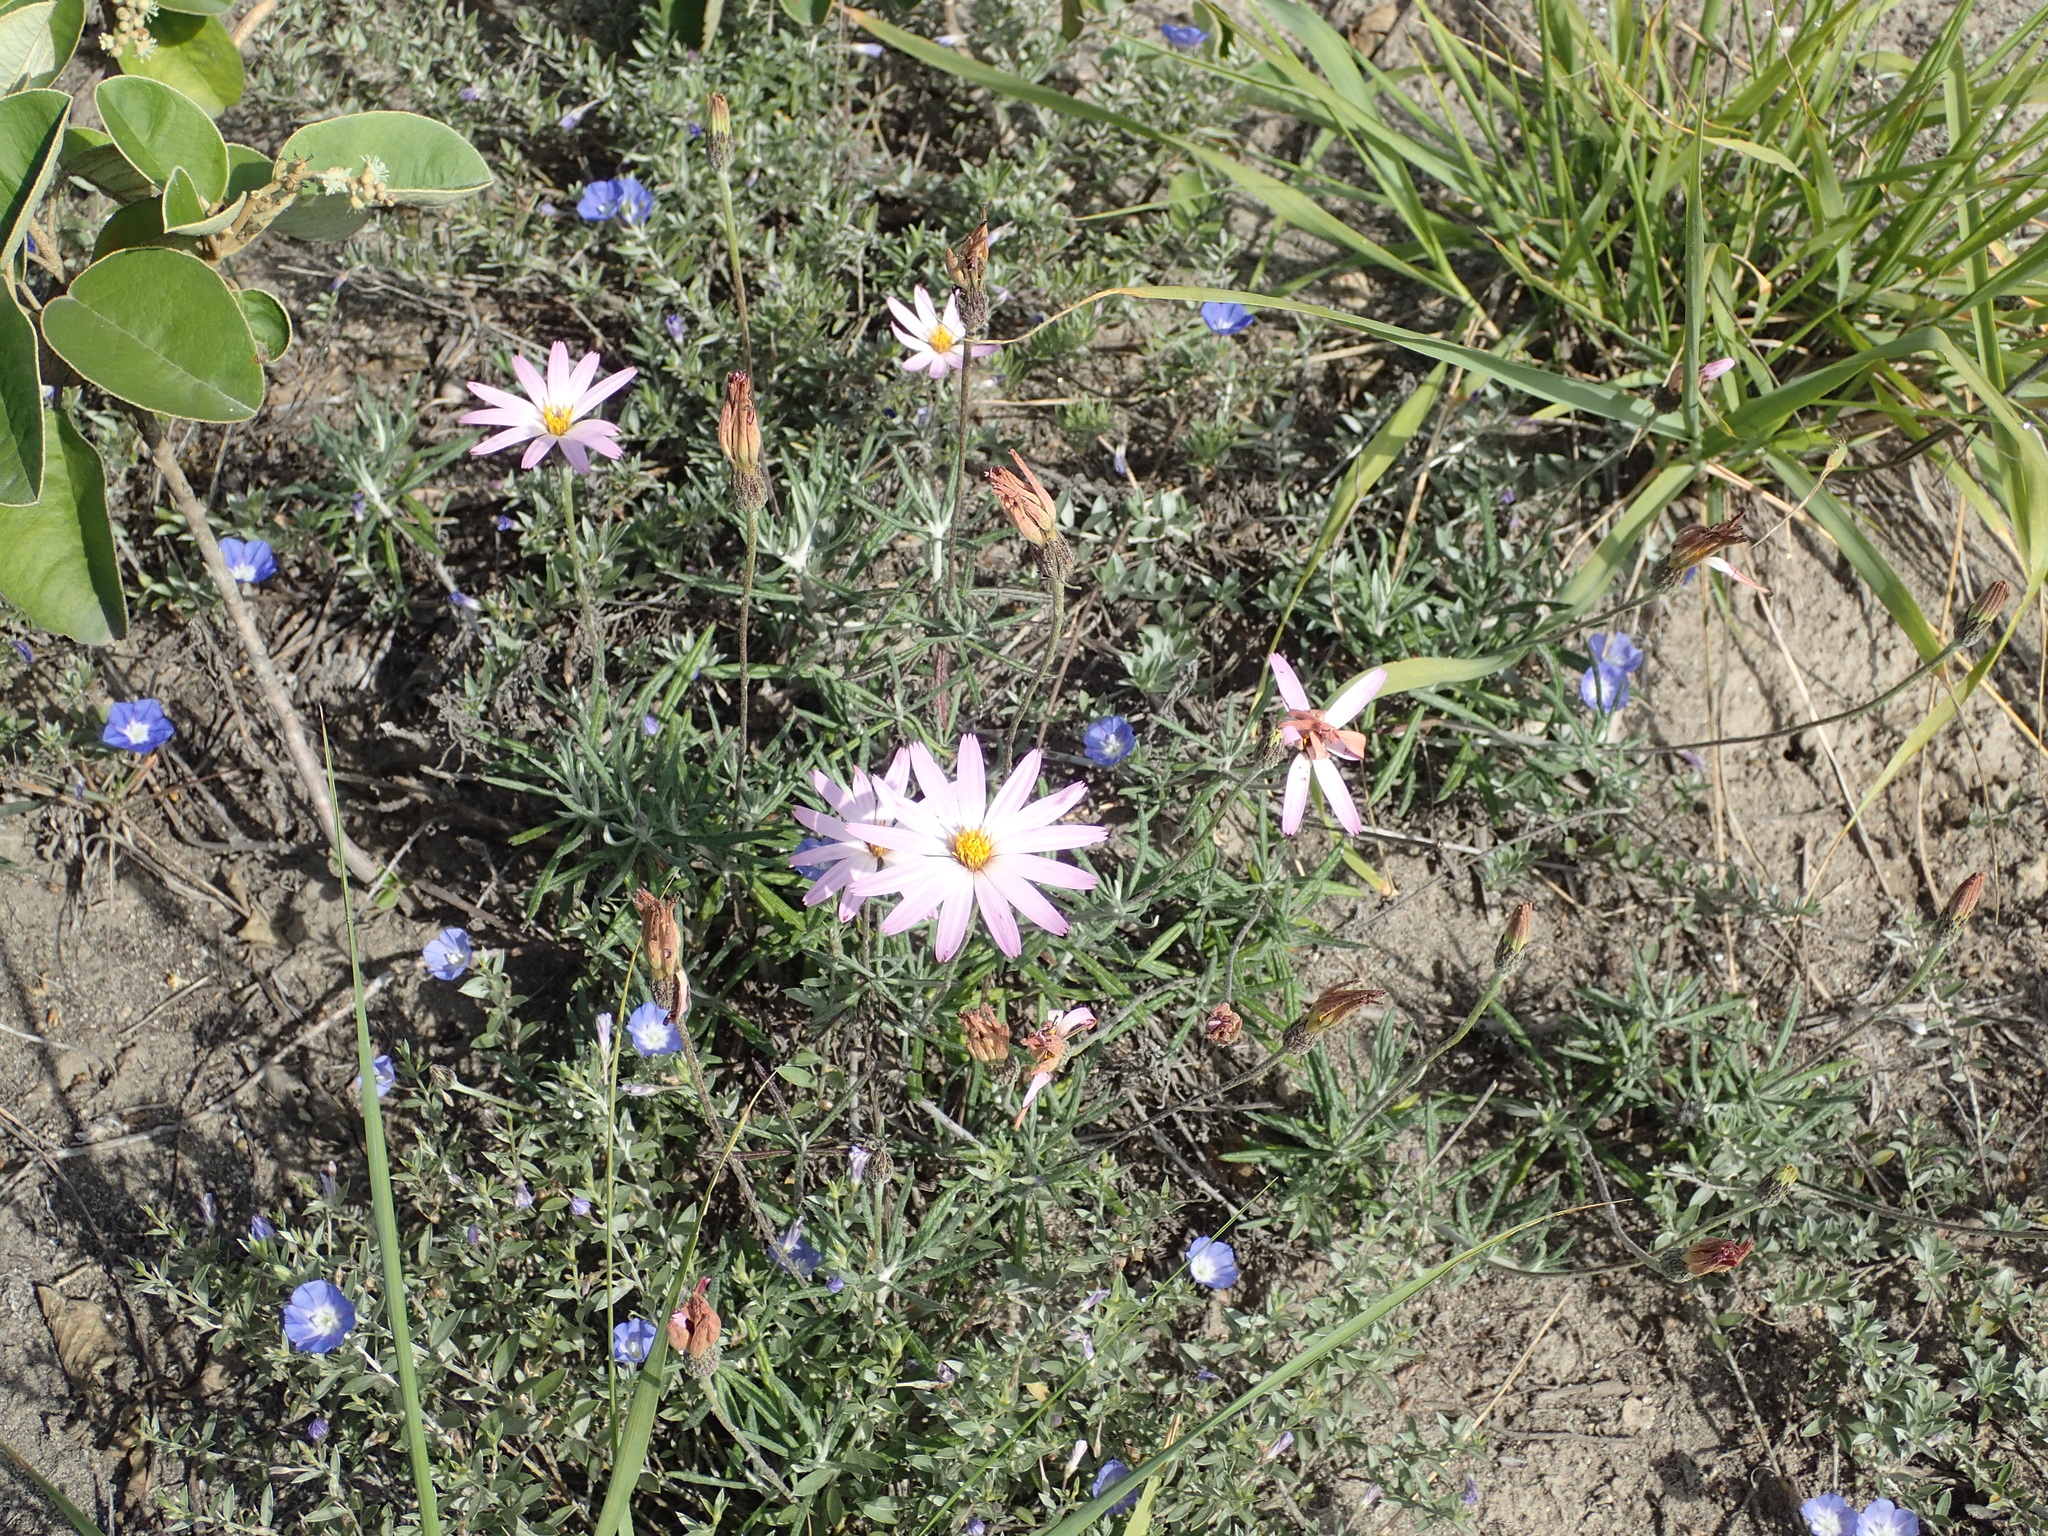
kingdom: Plantae
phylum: Tracheophyta
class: Magnoliopsida
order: Asterales
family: Asteraceae
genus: Onoseris
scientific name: Onoseris hyssopifolia
